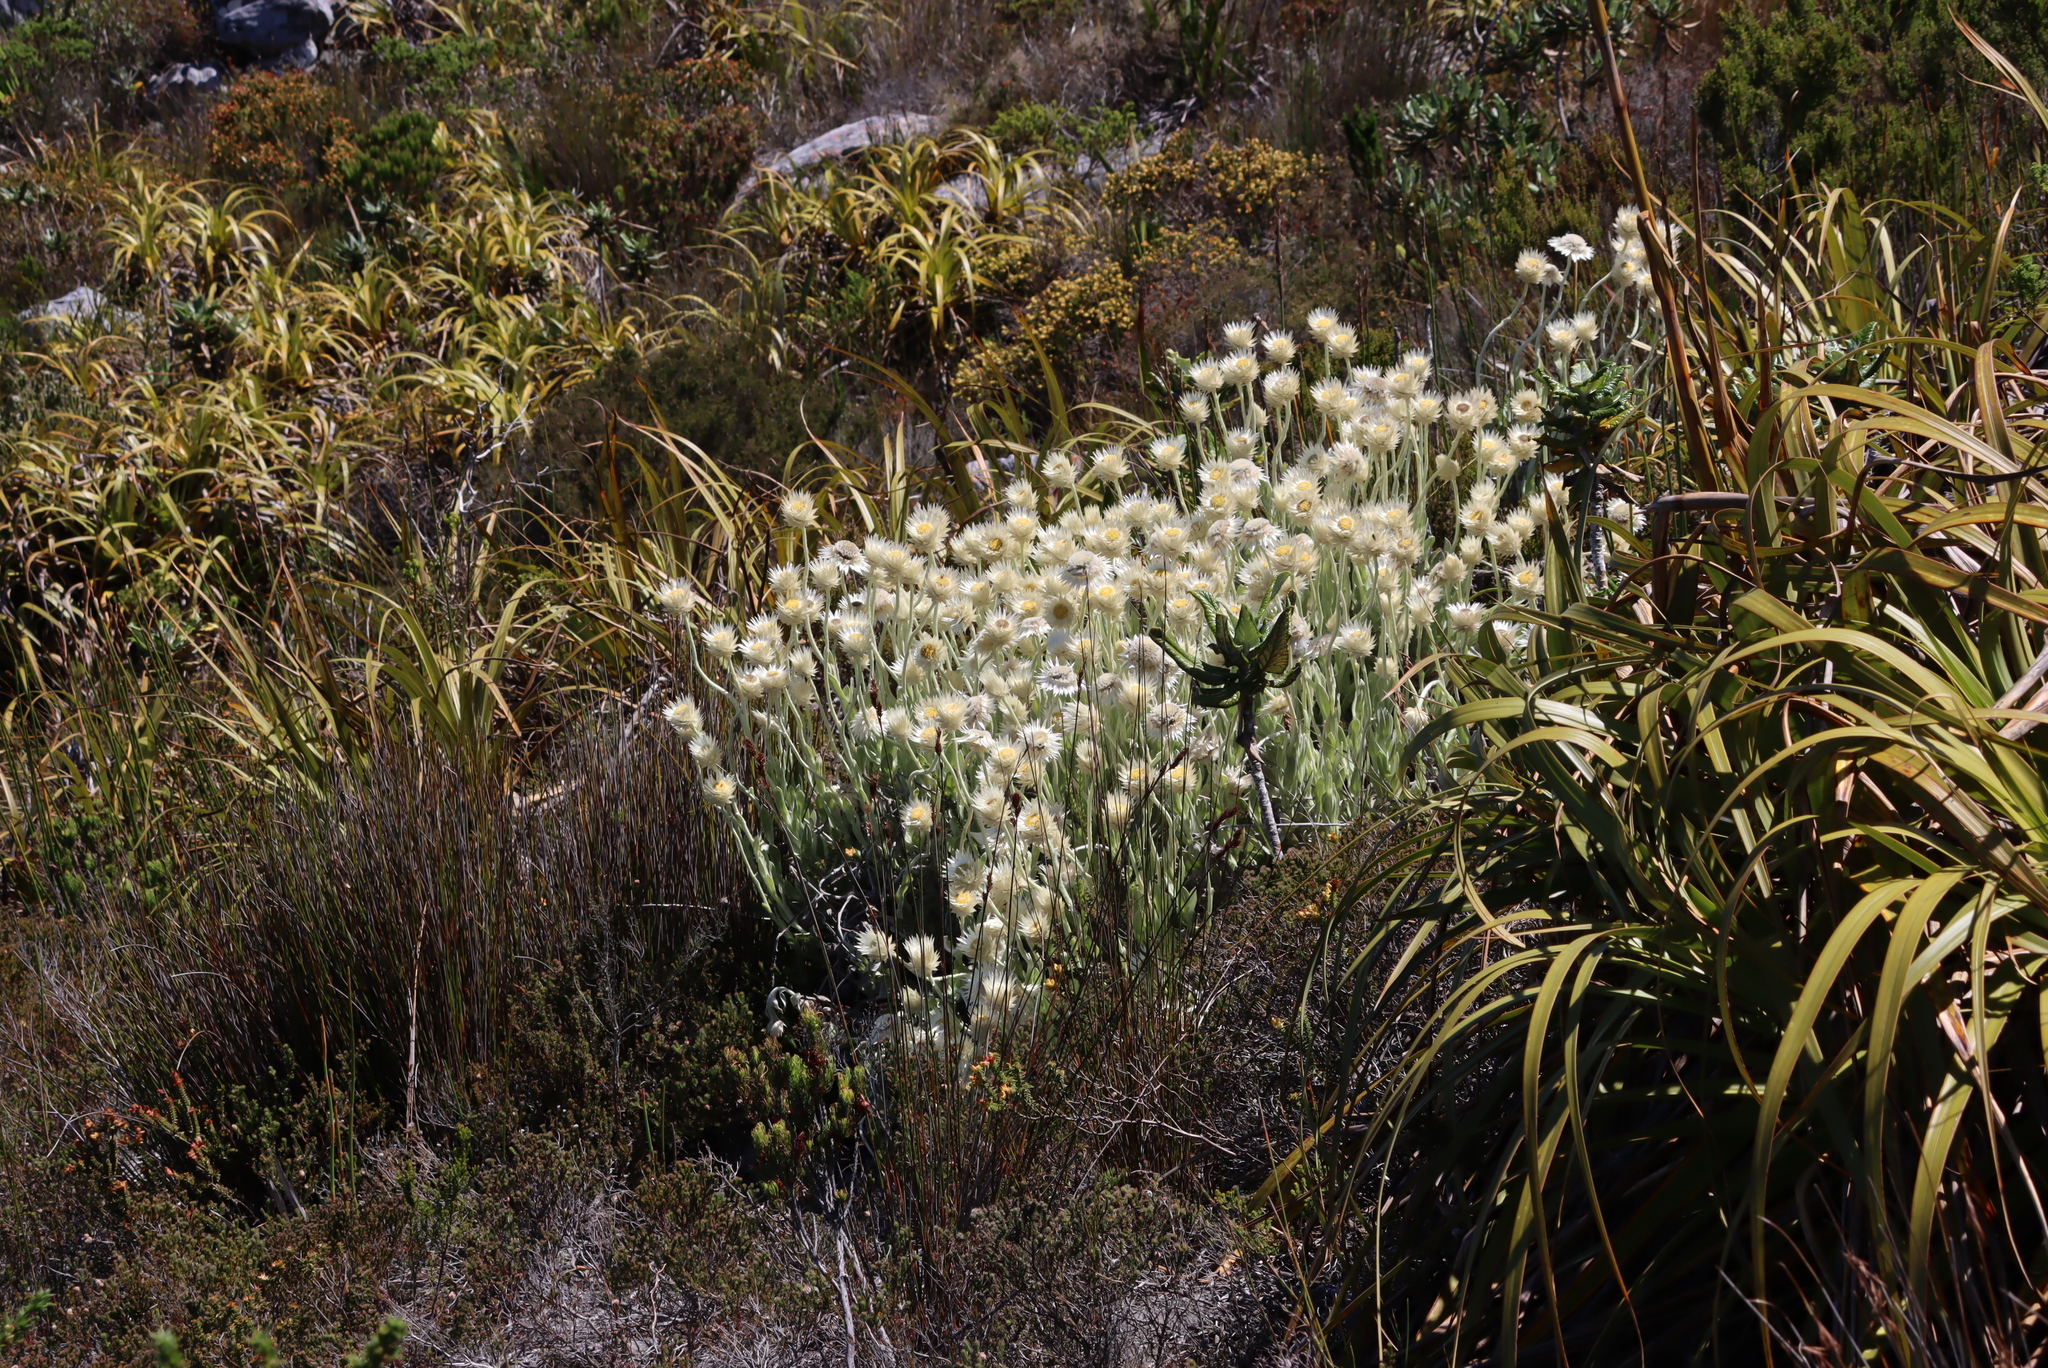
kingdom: Plantae
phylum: Tracheophyta
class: Magnoliopsida
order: Asterales
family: Asteraceae
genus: Syncarpha
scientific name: Syncarpha speciosissima
